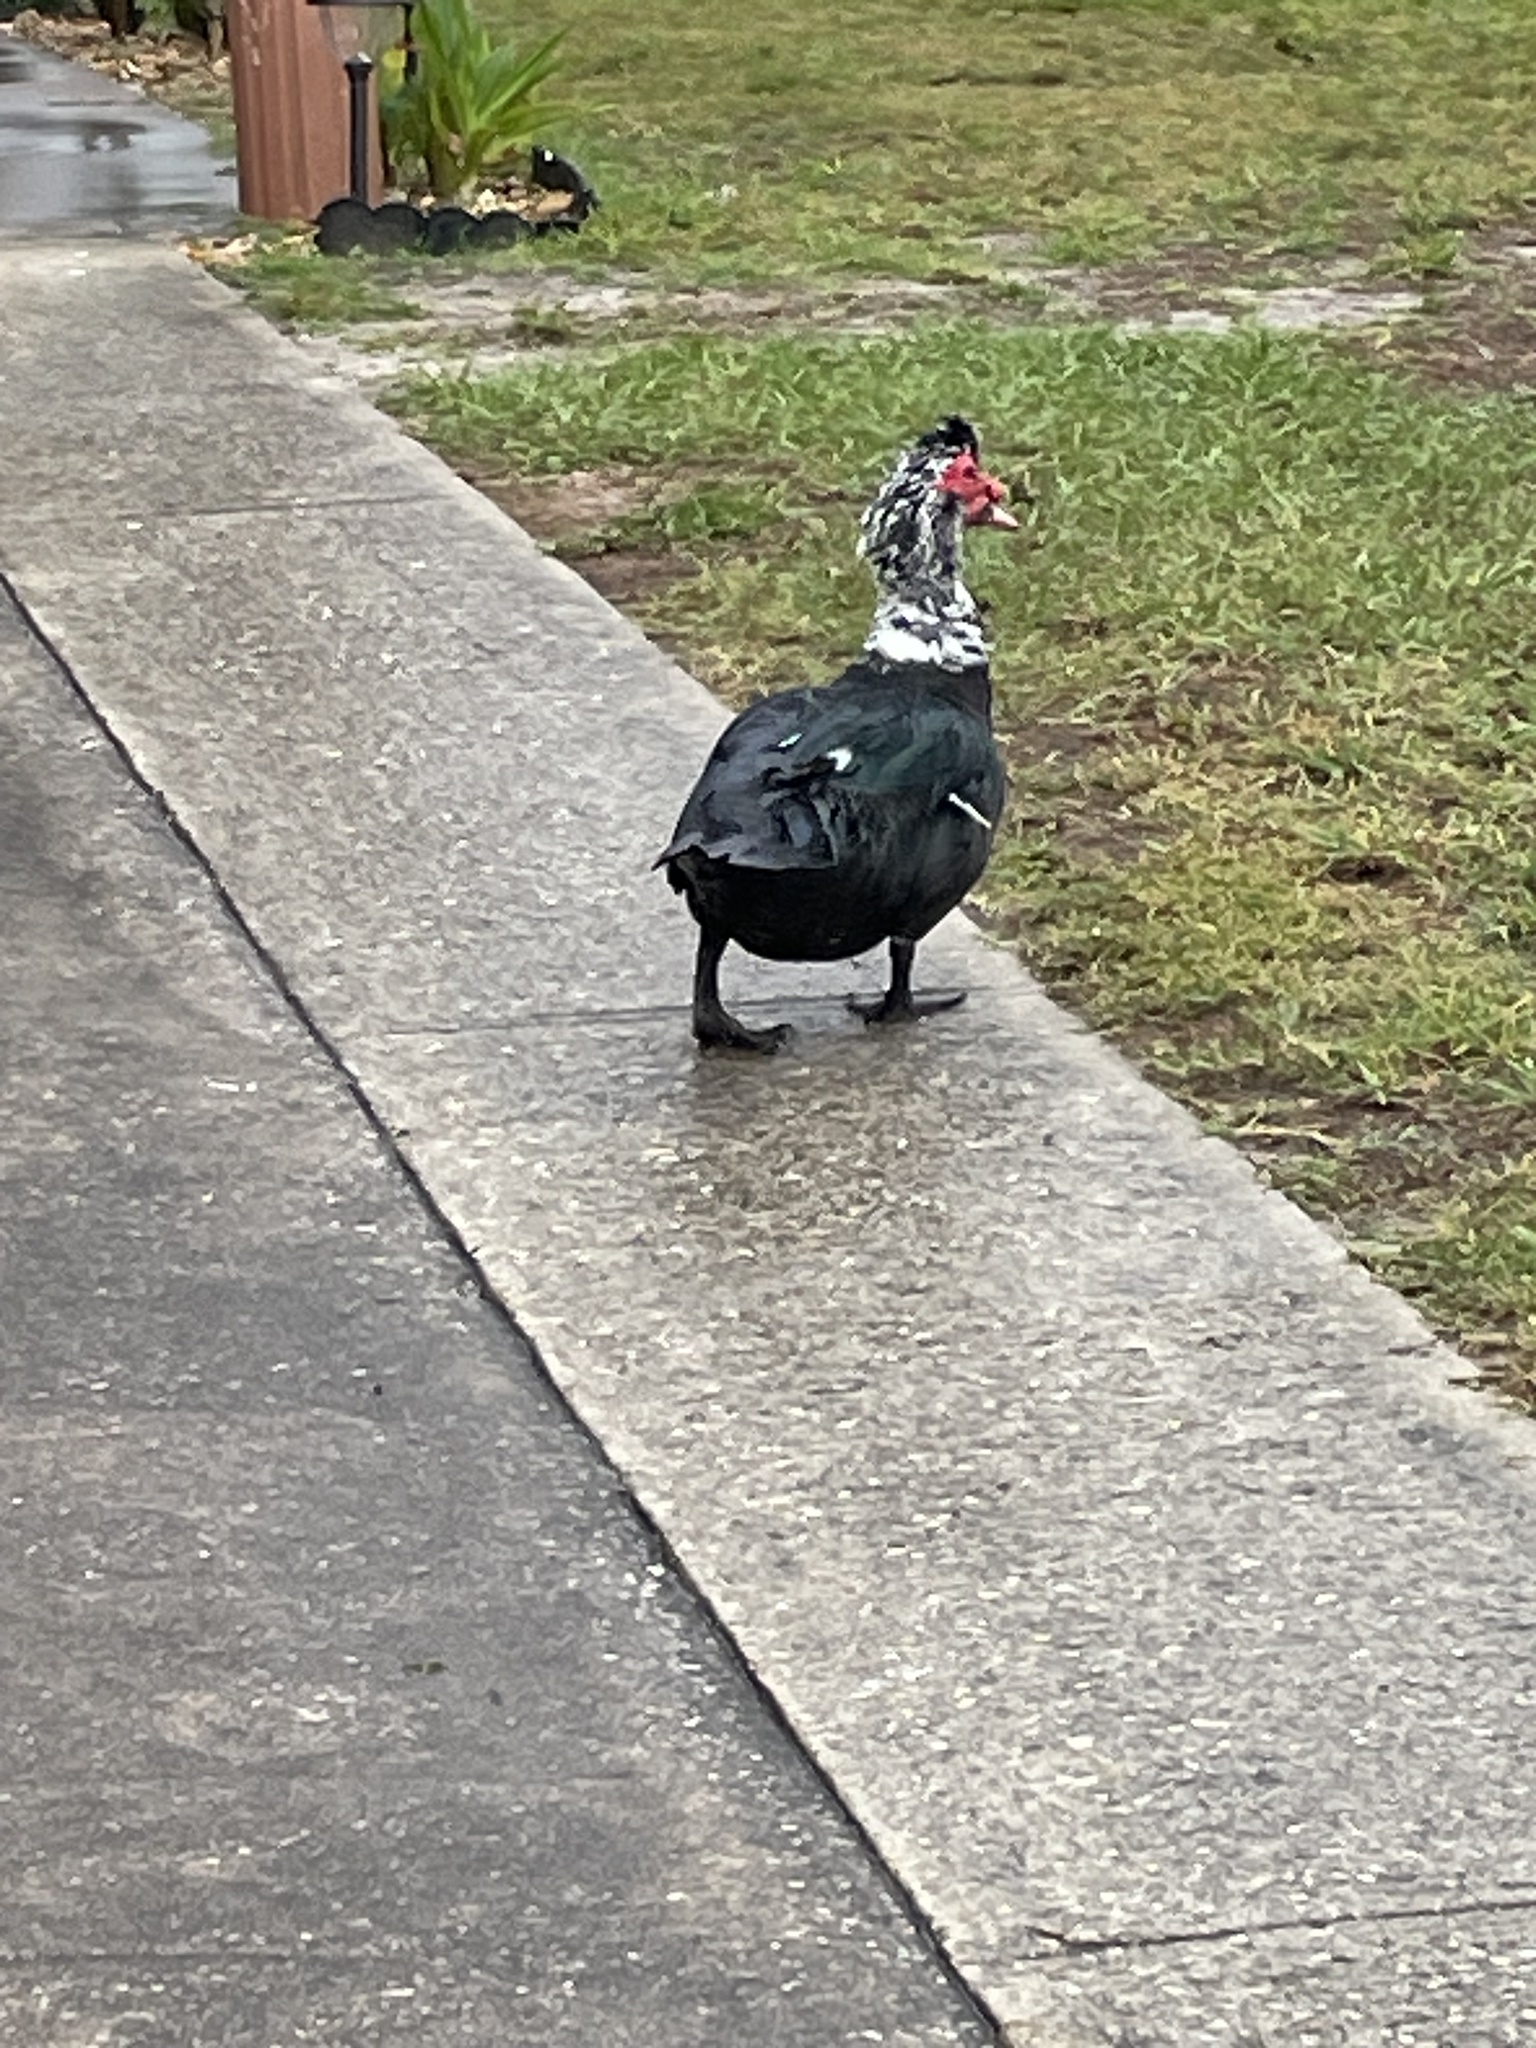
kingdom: Animalia
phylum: Chordata
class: Aves
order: Anseriformes
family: Anatidae
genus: Cairina
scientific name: Cairina moschata
